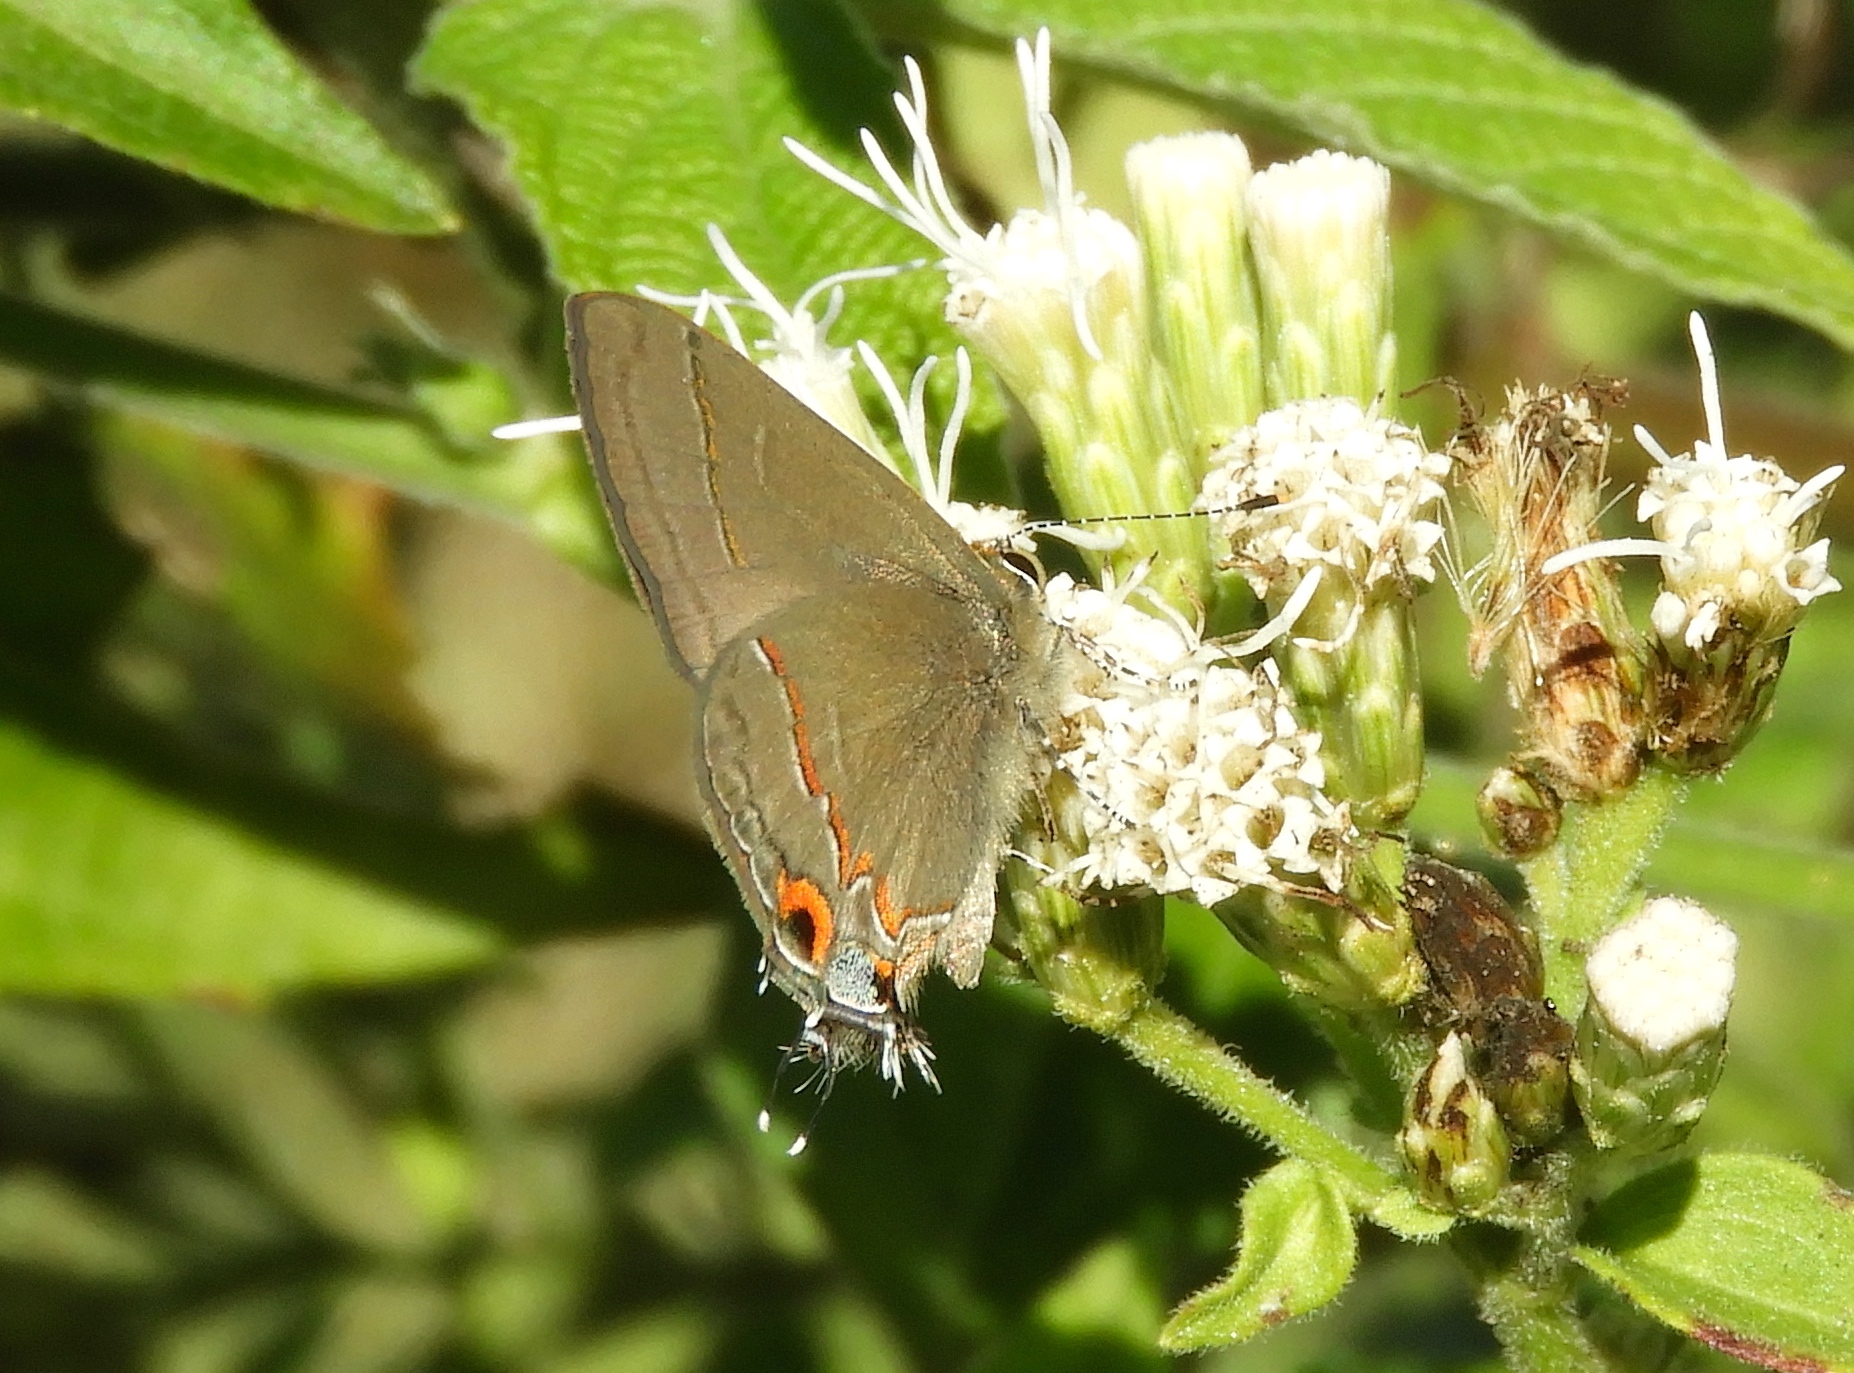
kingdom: Animalia
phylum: Arthropoda
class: Insecta
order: Lepidoptera
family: Lycaenidae
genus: Electrostrymon
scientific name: Electrostrymon endymion
